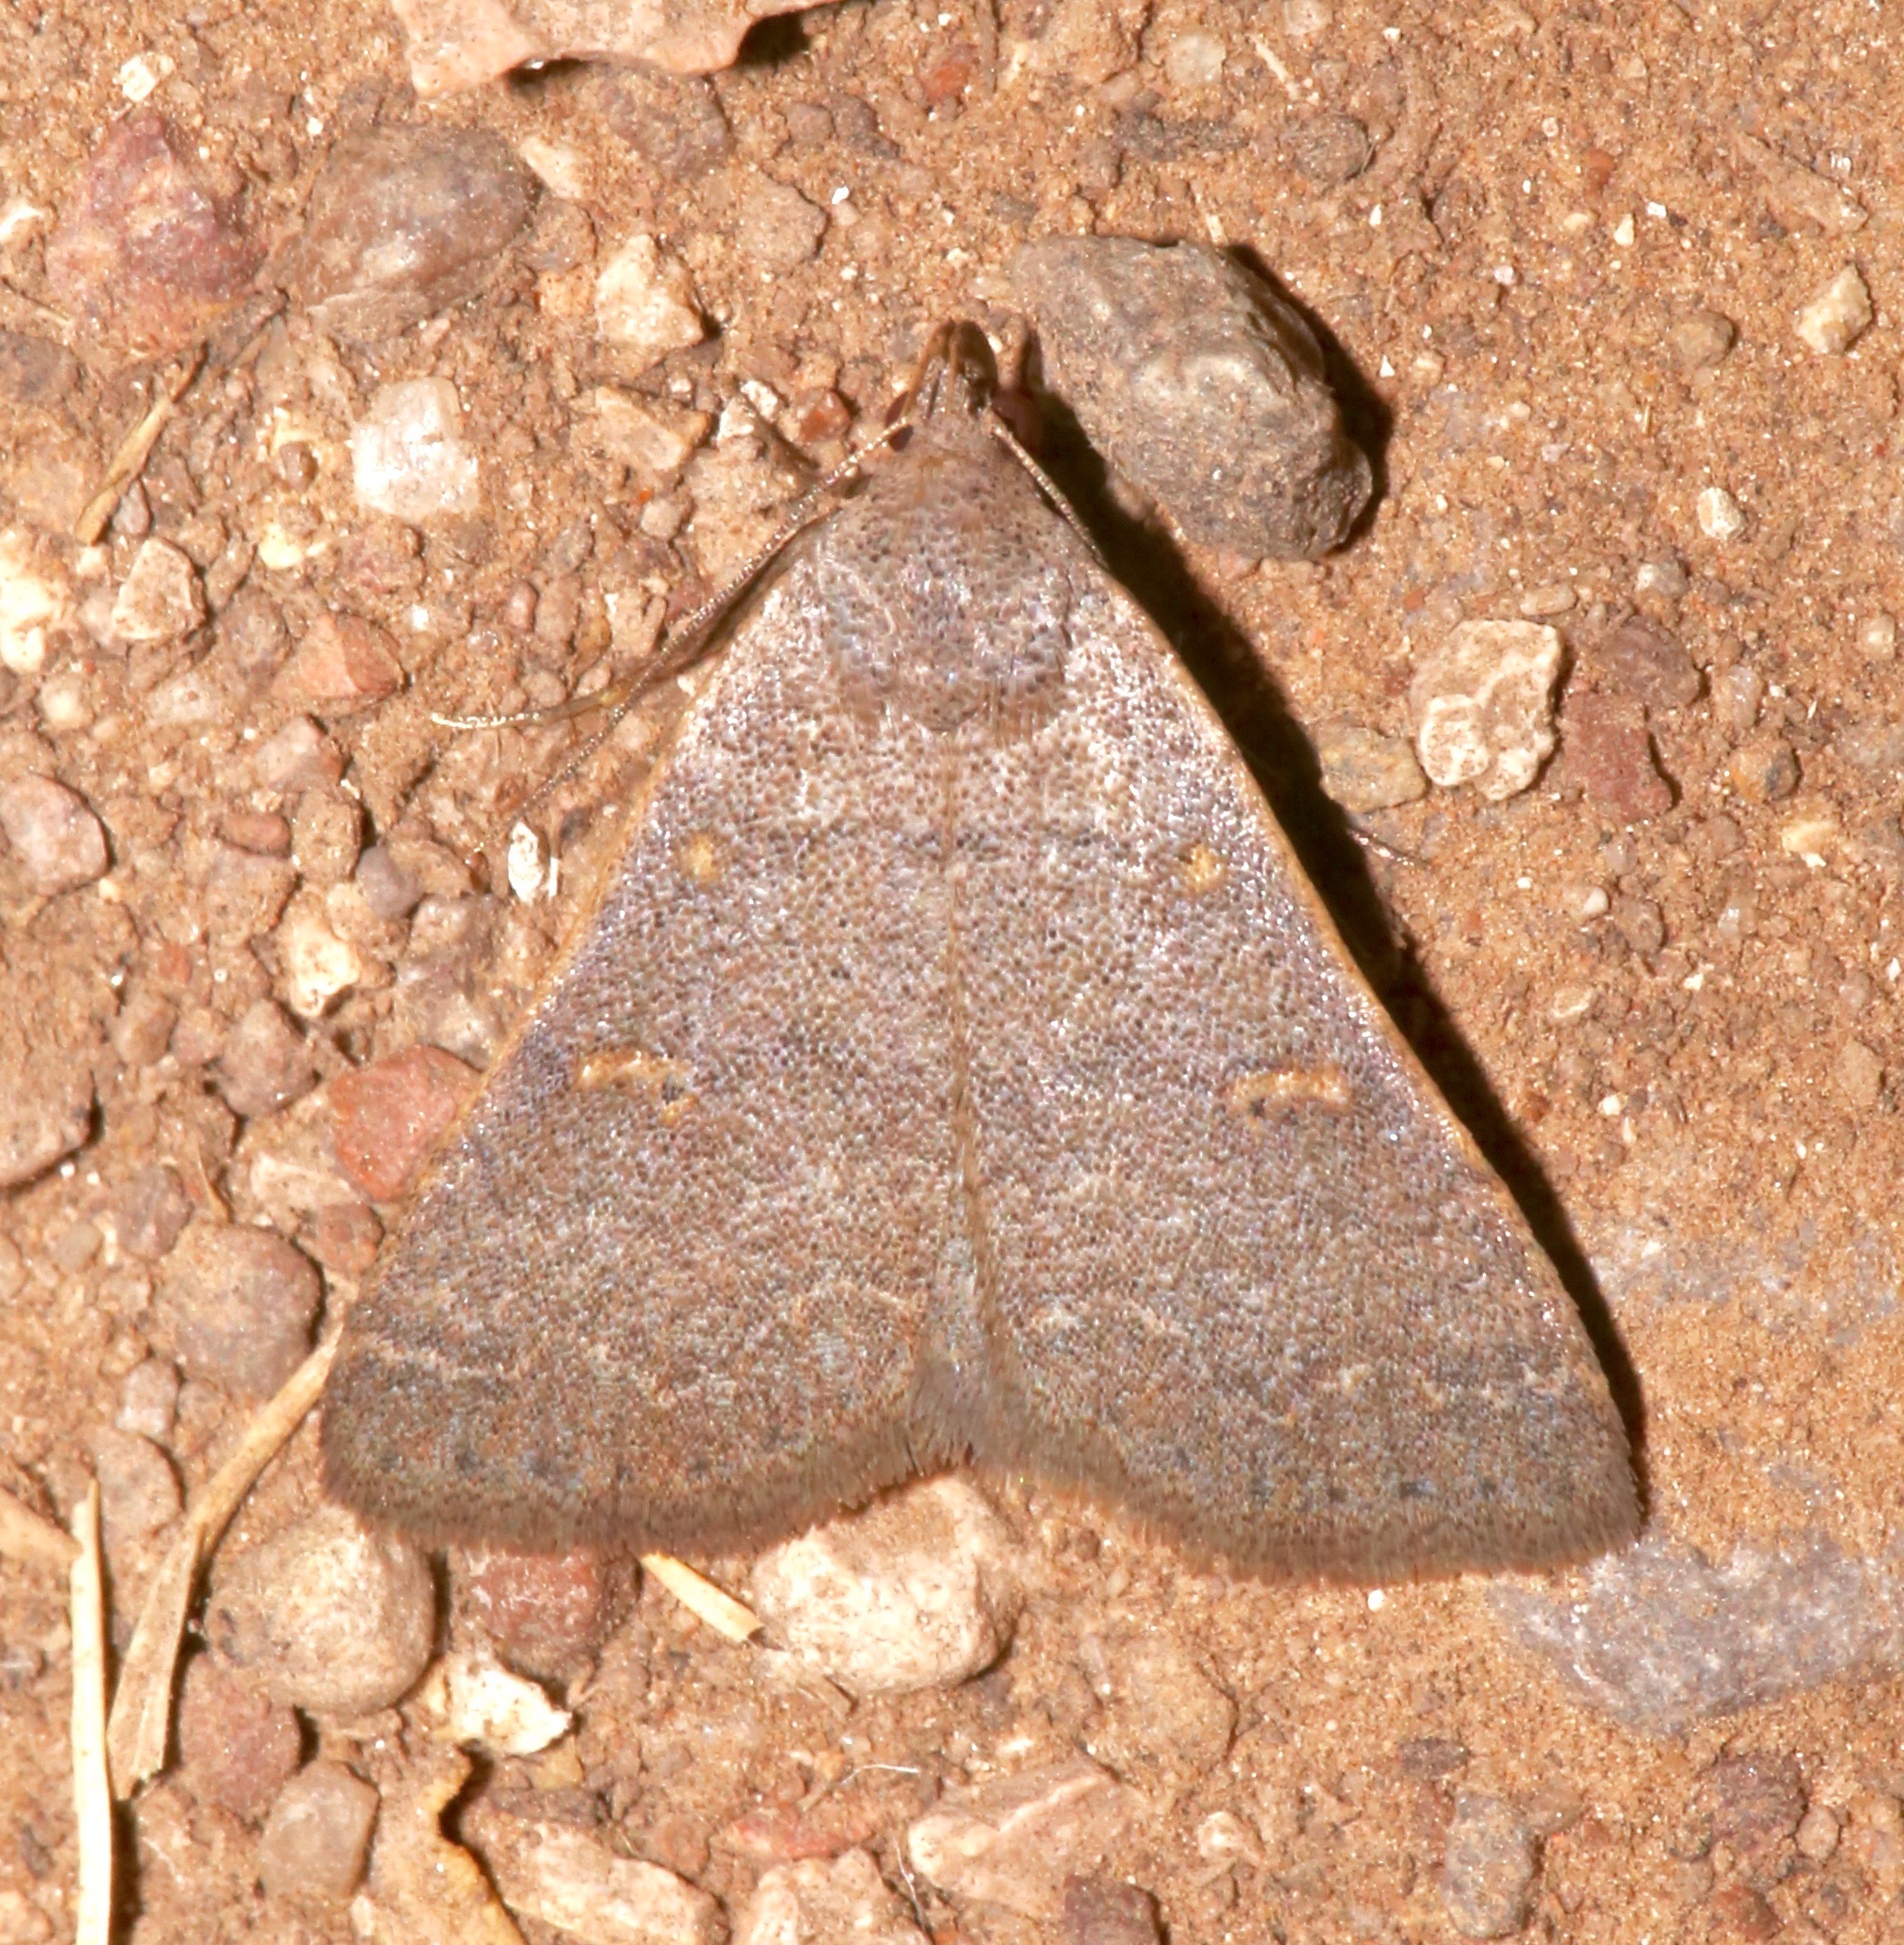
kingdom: Animalia
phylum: Arthropoda
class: Insecta
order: Lepidoptera
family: Erebidae
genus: Renia
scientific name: Renia sobrialis
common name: Sober renia moth
